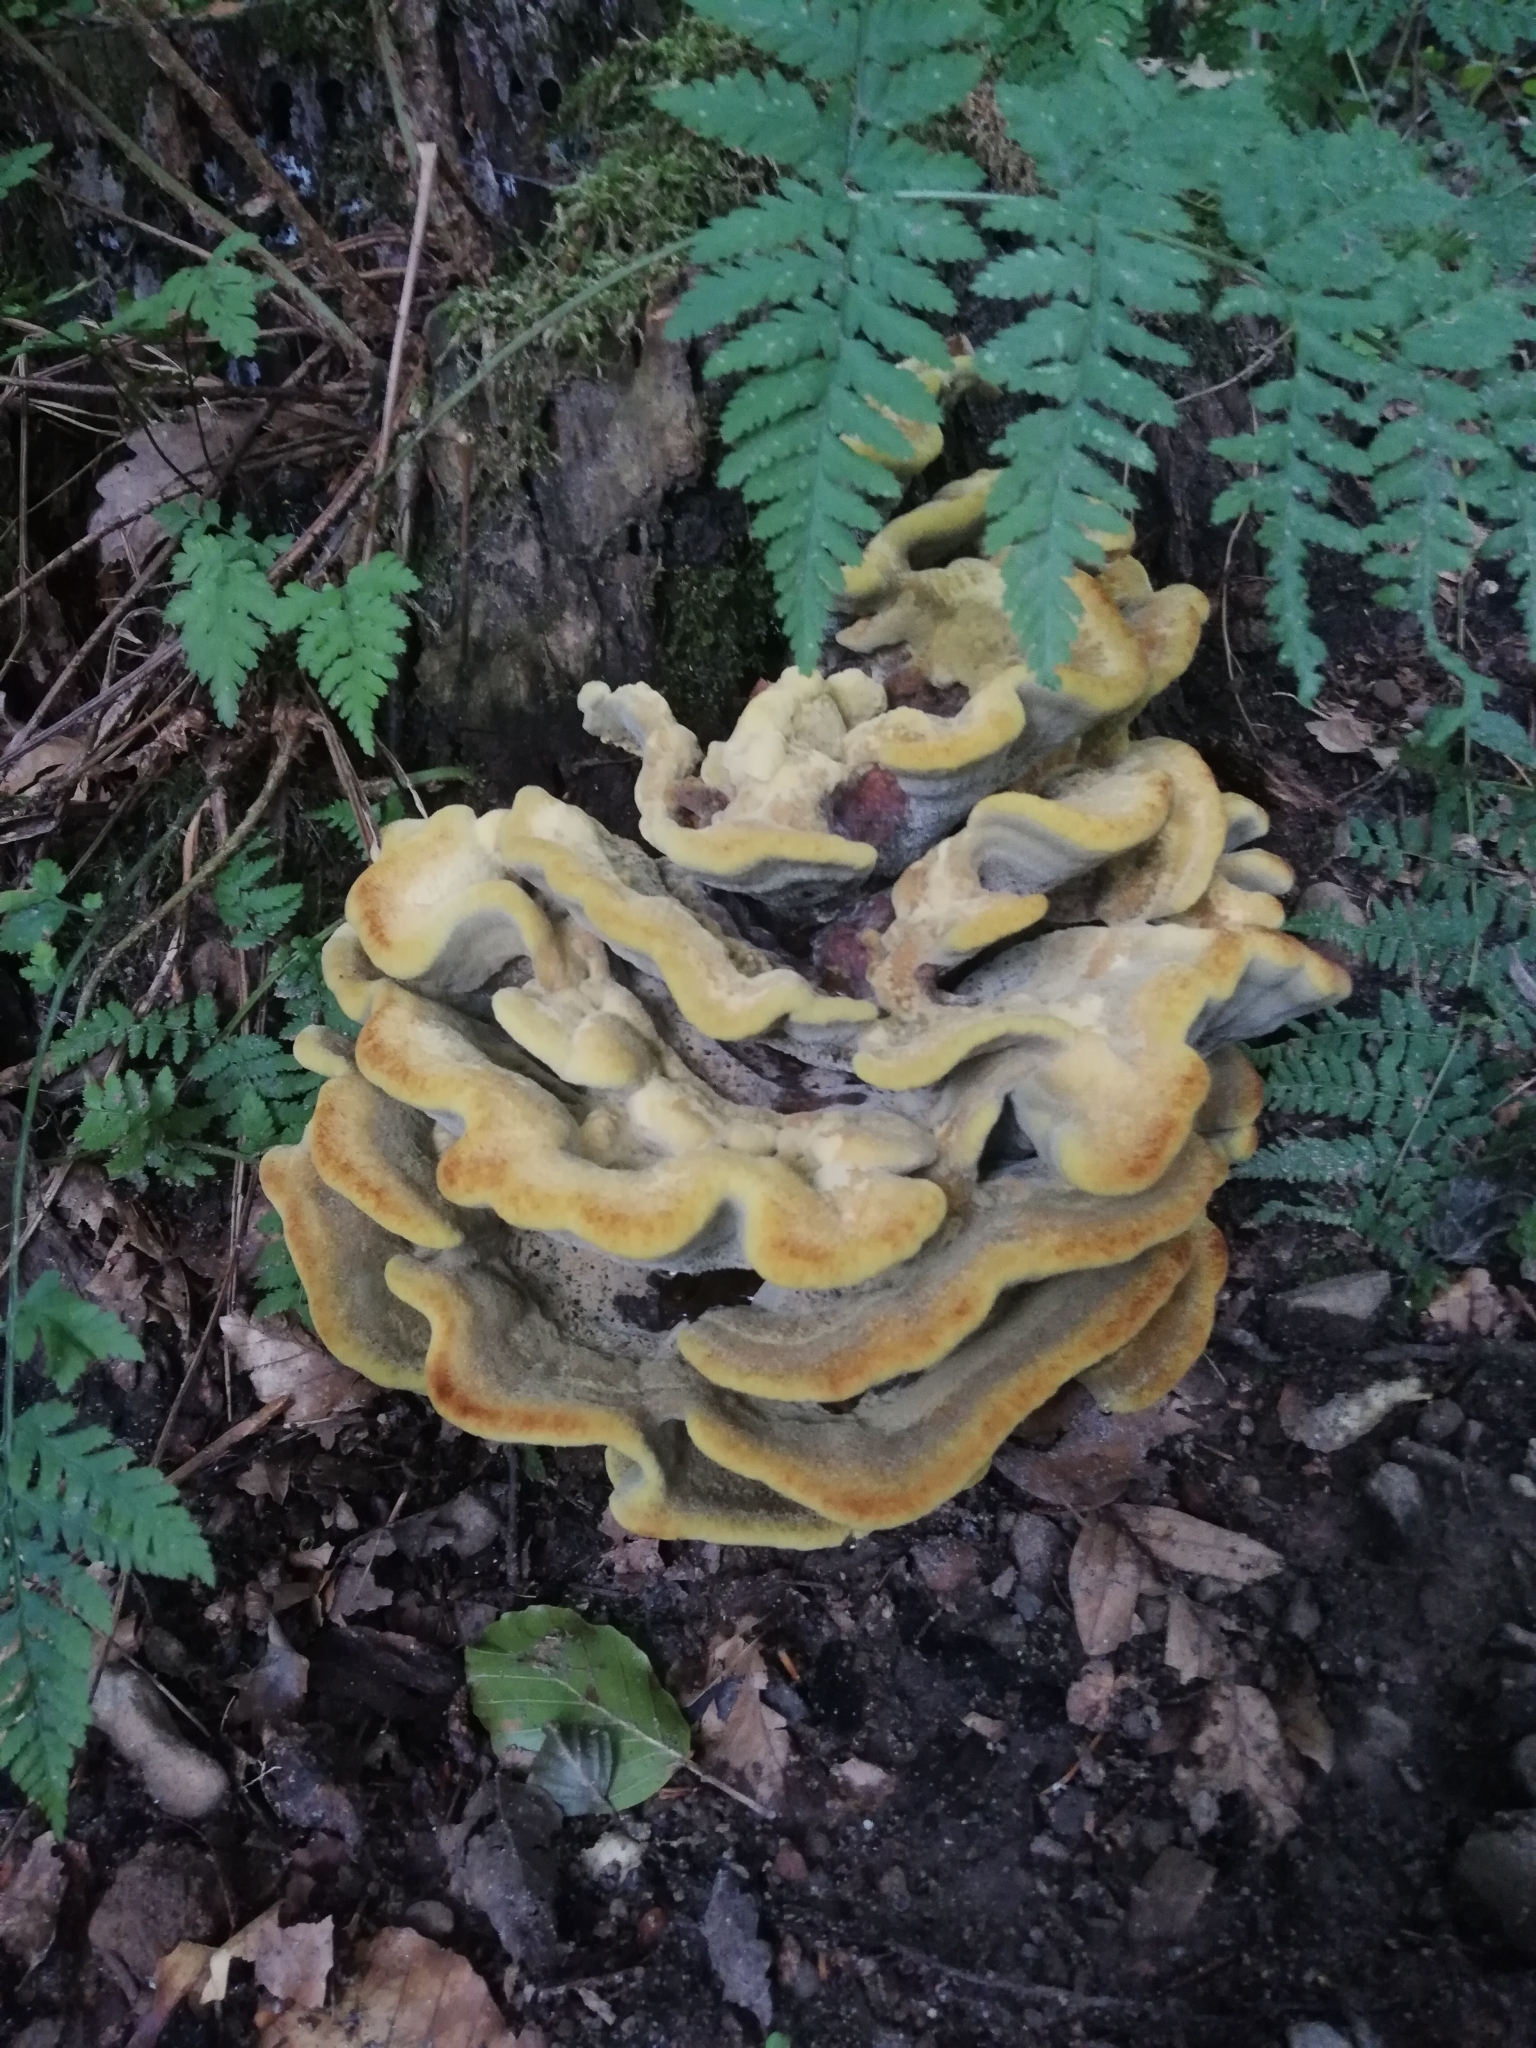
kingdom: Fungi
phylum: Basidiomycota
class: Agaricomycetes
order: Polyporales
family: Laetiporaceae
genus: Phaeolus
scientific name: Phaeolus schweinitzii
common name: Dyer's mazegill
